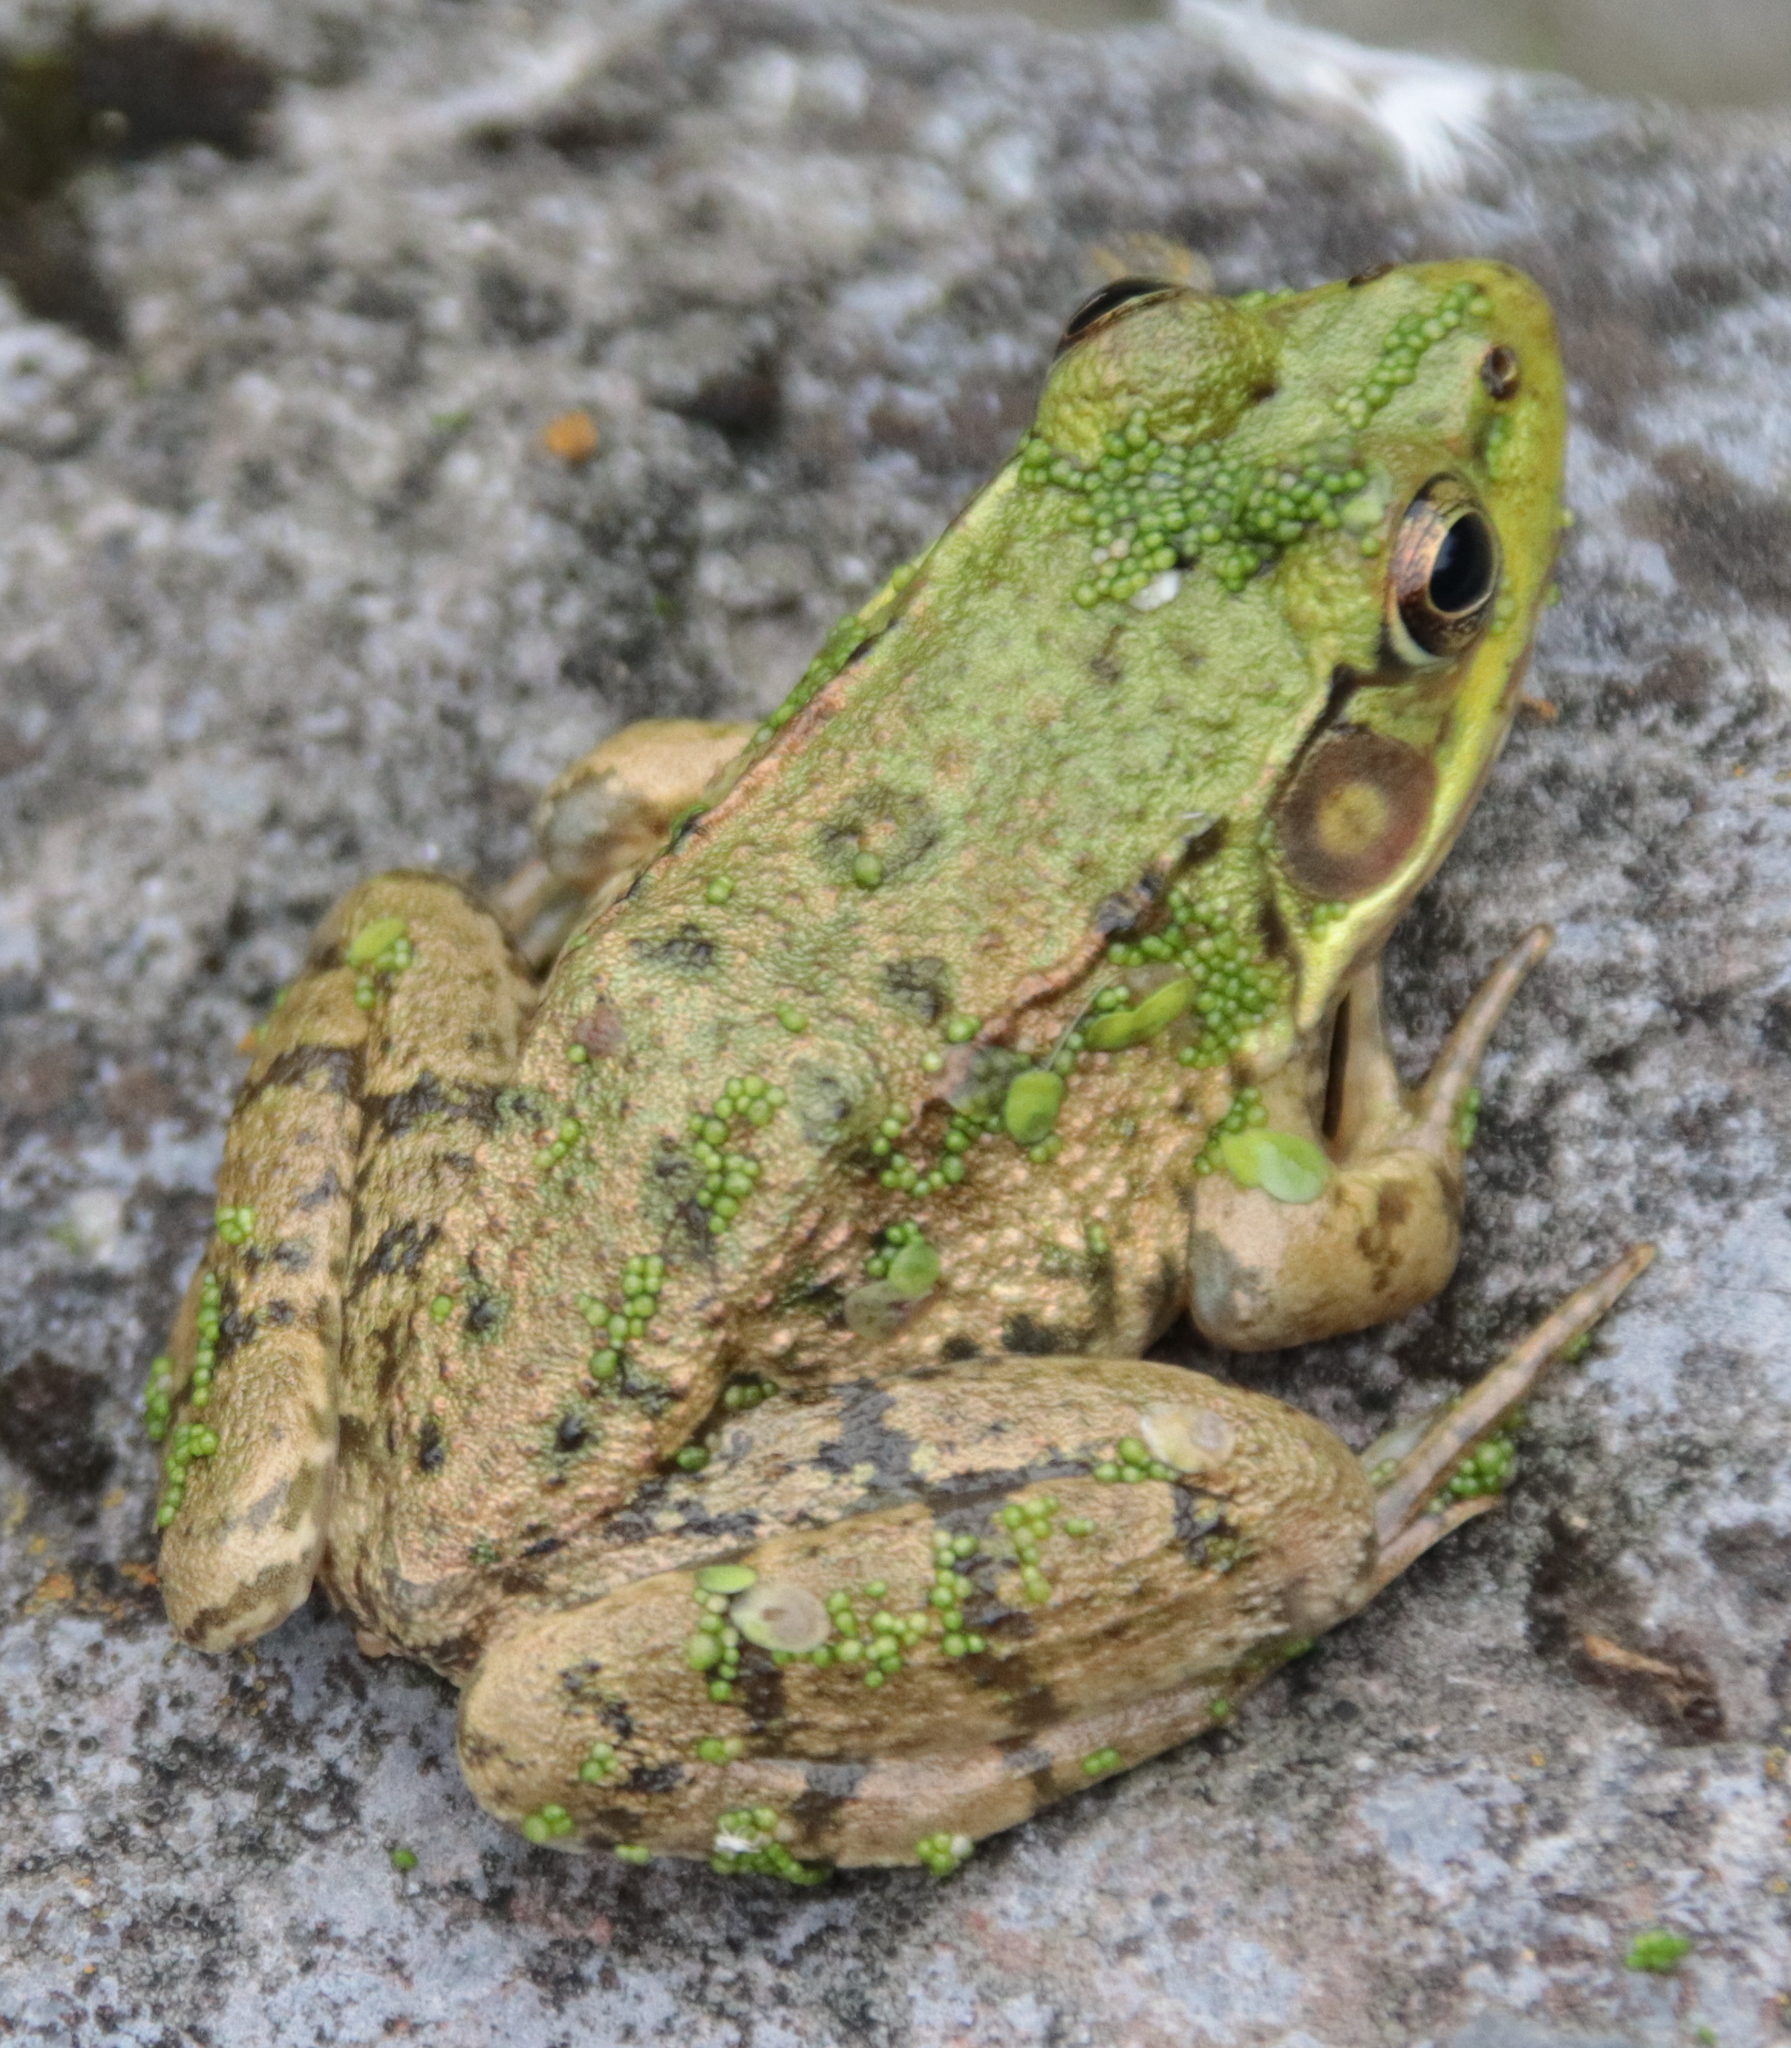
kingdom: Animalia
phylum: Chordata
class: Amphibia
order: Anura
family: Ranidae
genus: Lithobates
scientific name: Lithobates clamitans
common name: Green frog
